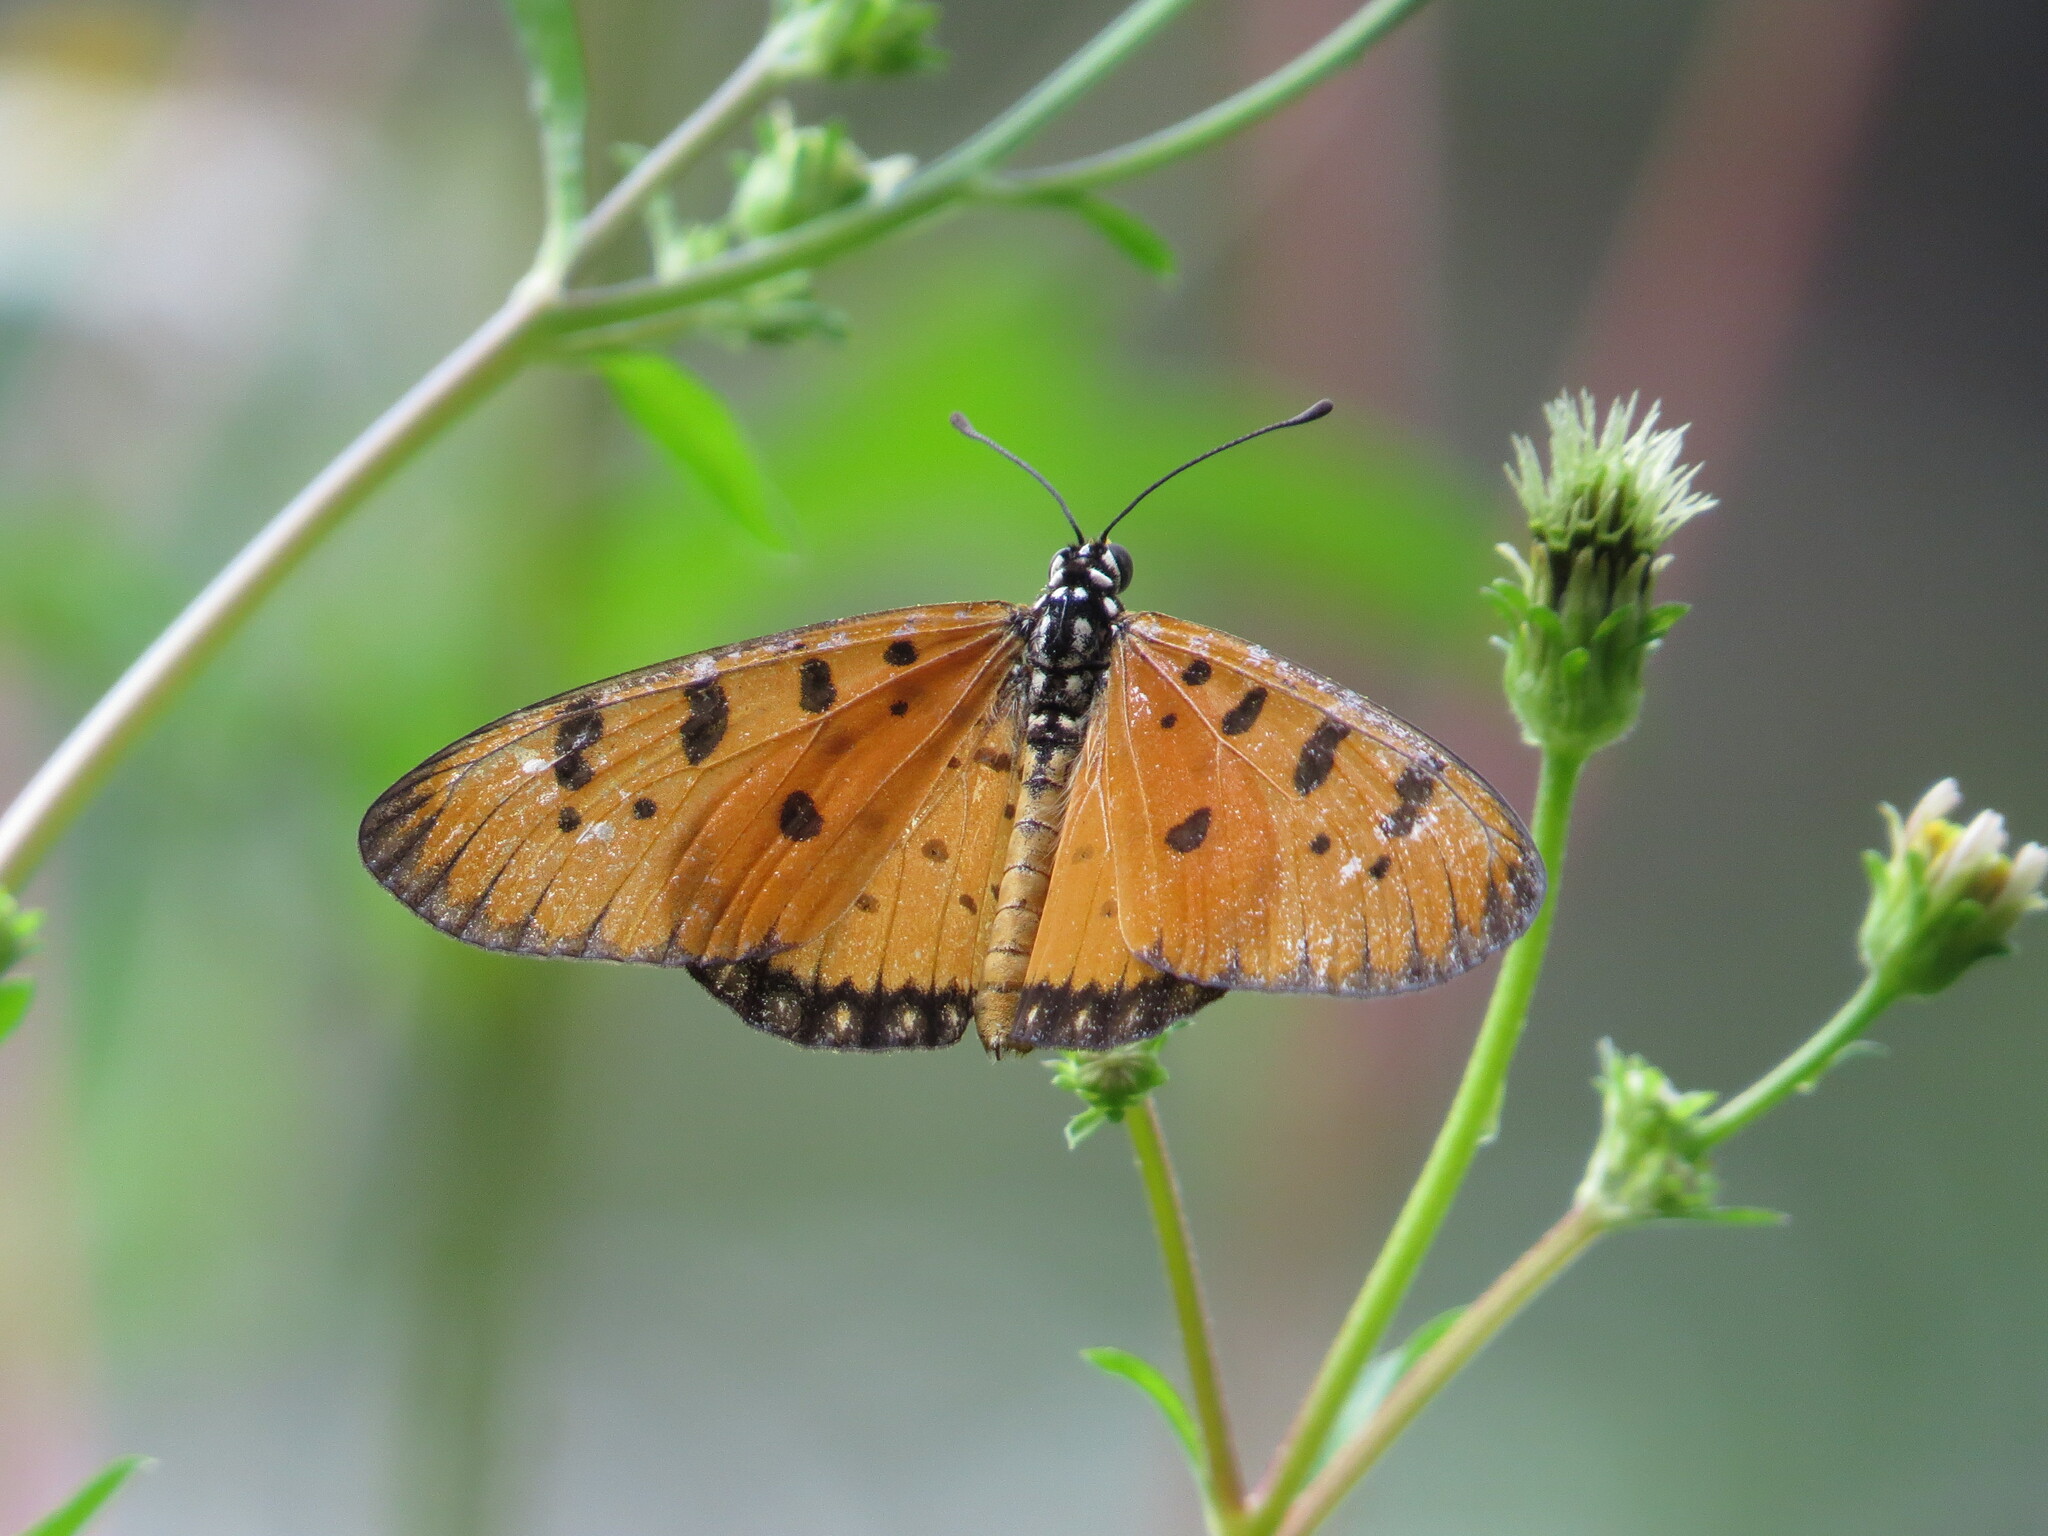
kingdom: Animalia
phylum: Arthropoda
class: Insecta
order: Lepidoptera
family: Nymphalidae
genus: Acraea
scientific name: Acraea terpsicore
